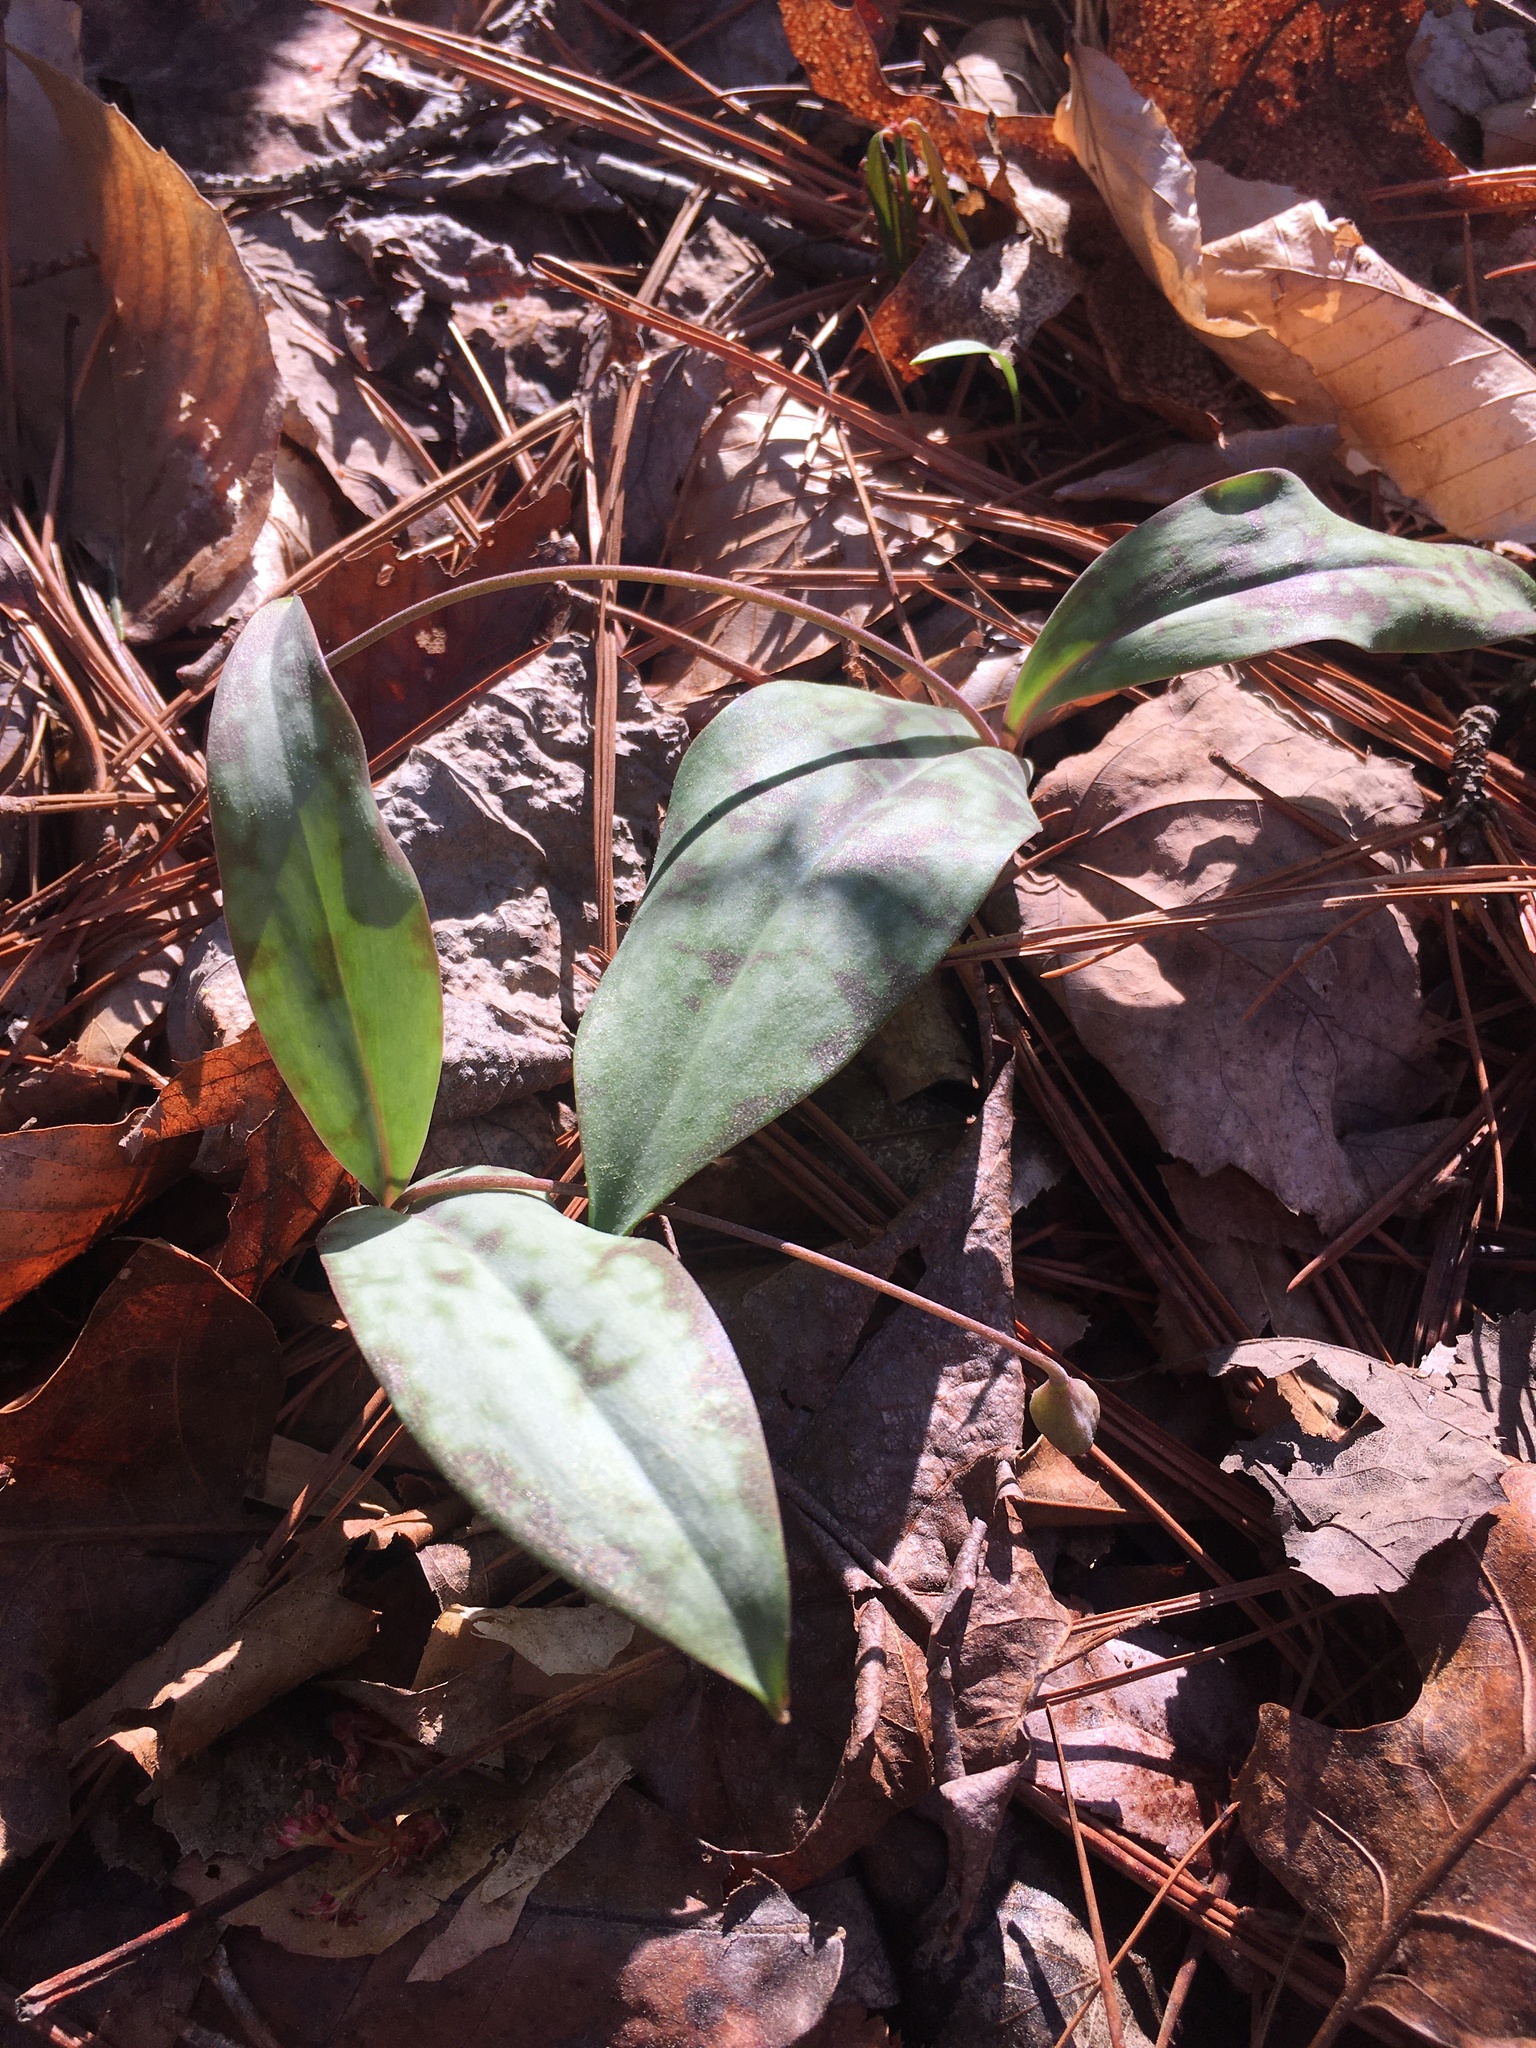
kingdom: Plantae
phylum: Tracheophyta
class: Liliopsida
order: Liliales
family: Liliaceae
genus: Erythronium
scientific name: Erythronium umbilicatum
